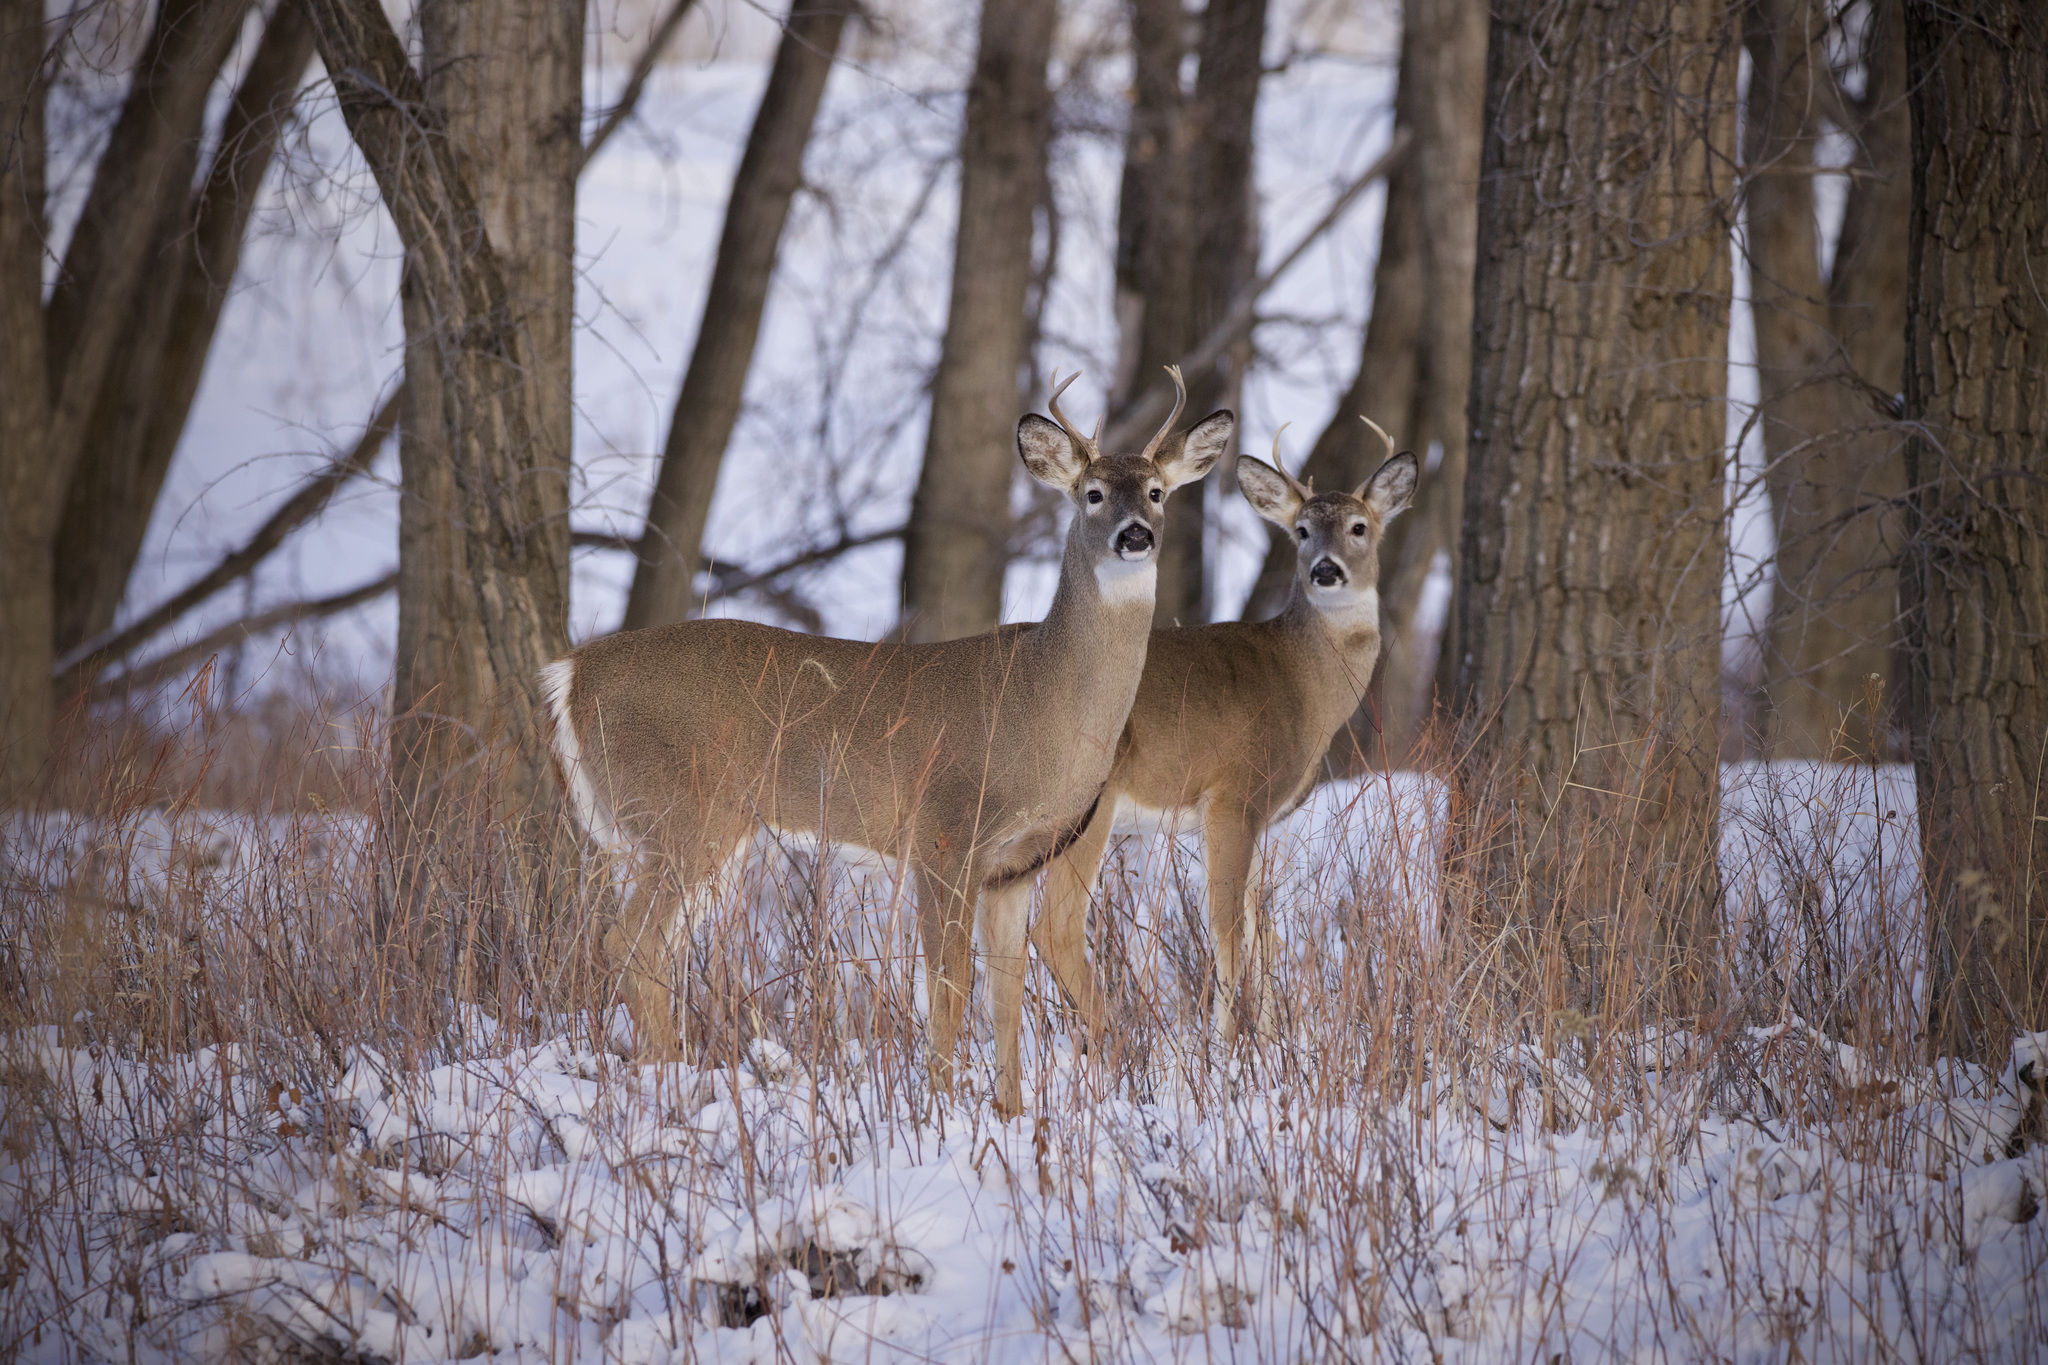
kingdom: Animalia
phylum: Chordata
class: Mammalia
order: Artiodactyla
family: Cervidae
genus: Odocoileus
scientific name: Odocoileus virginianus
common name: White-tailed deer
